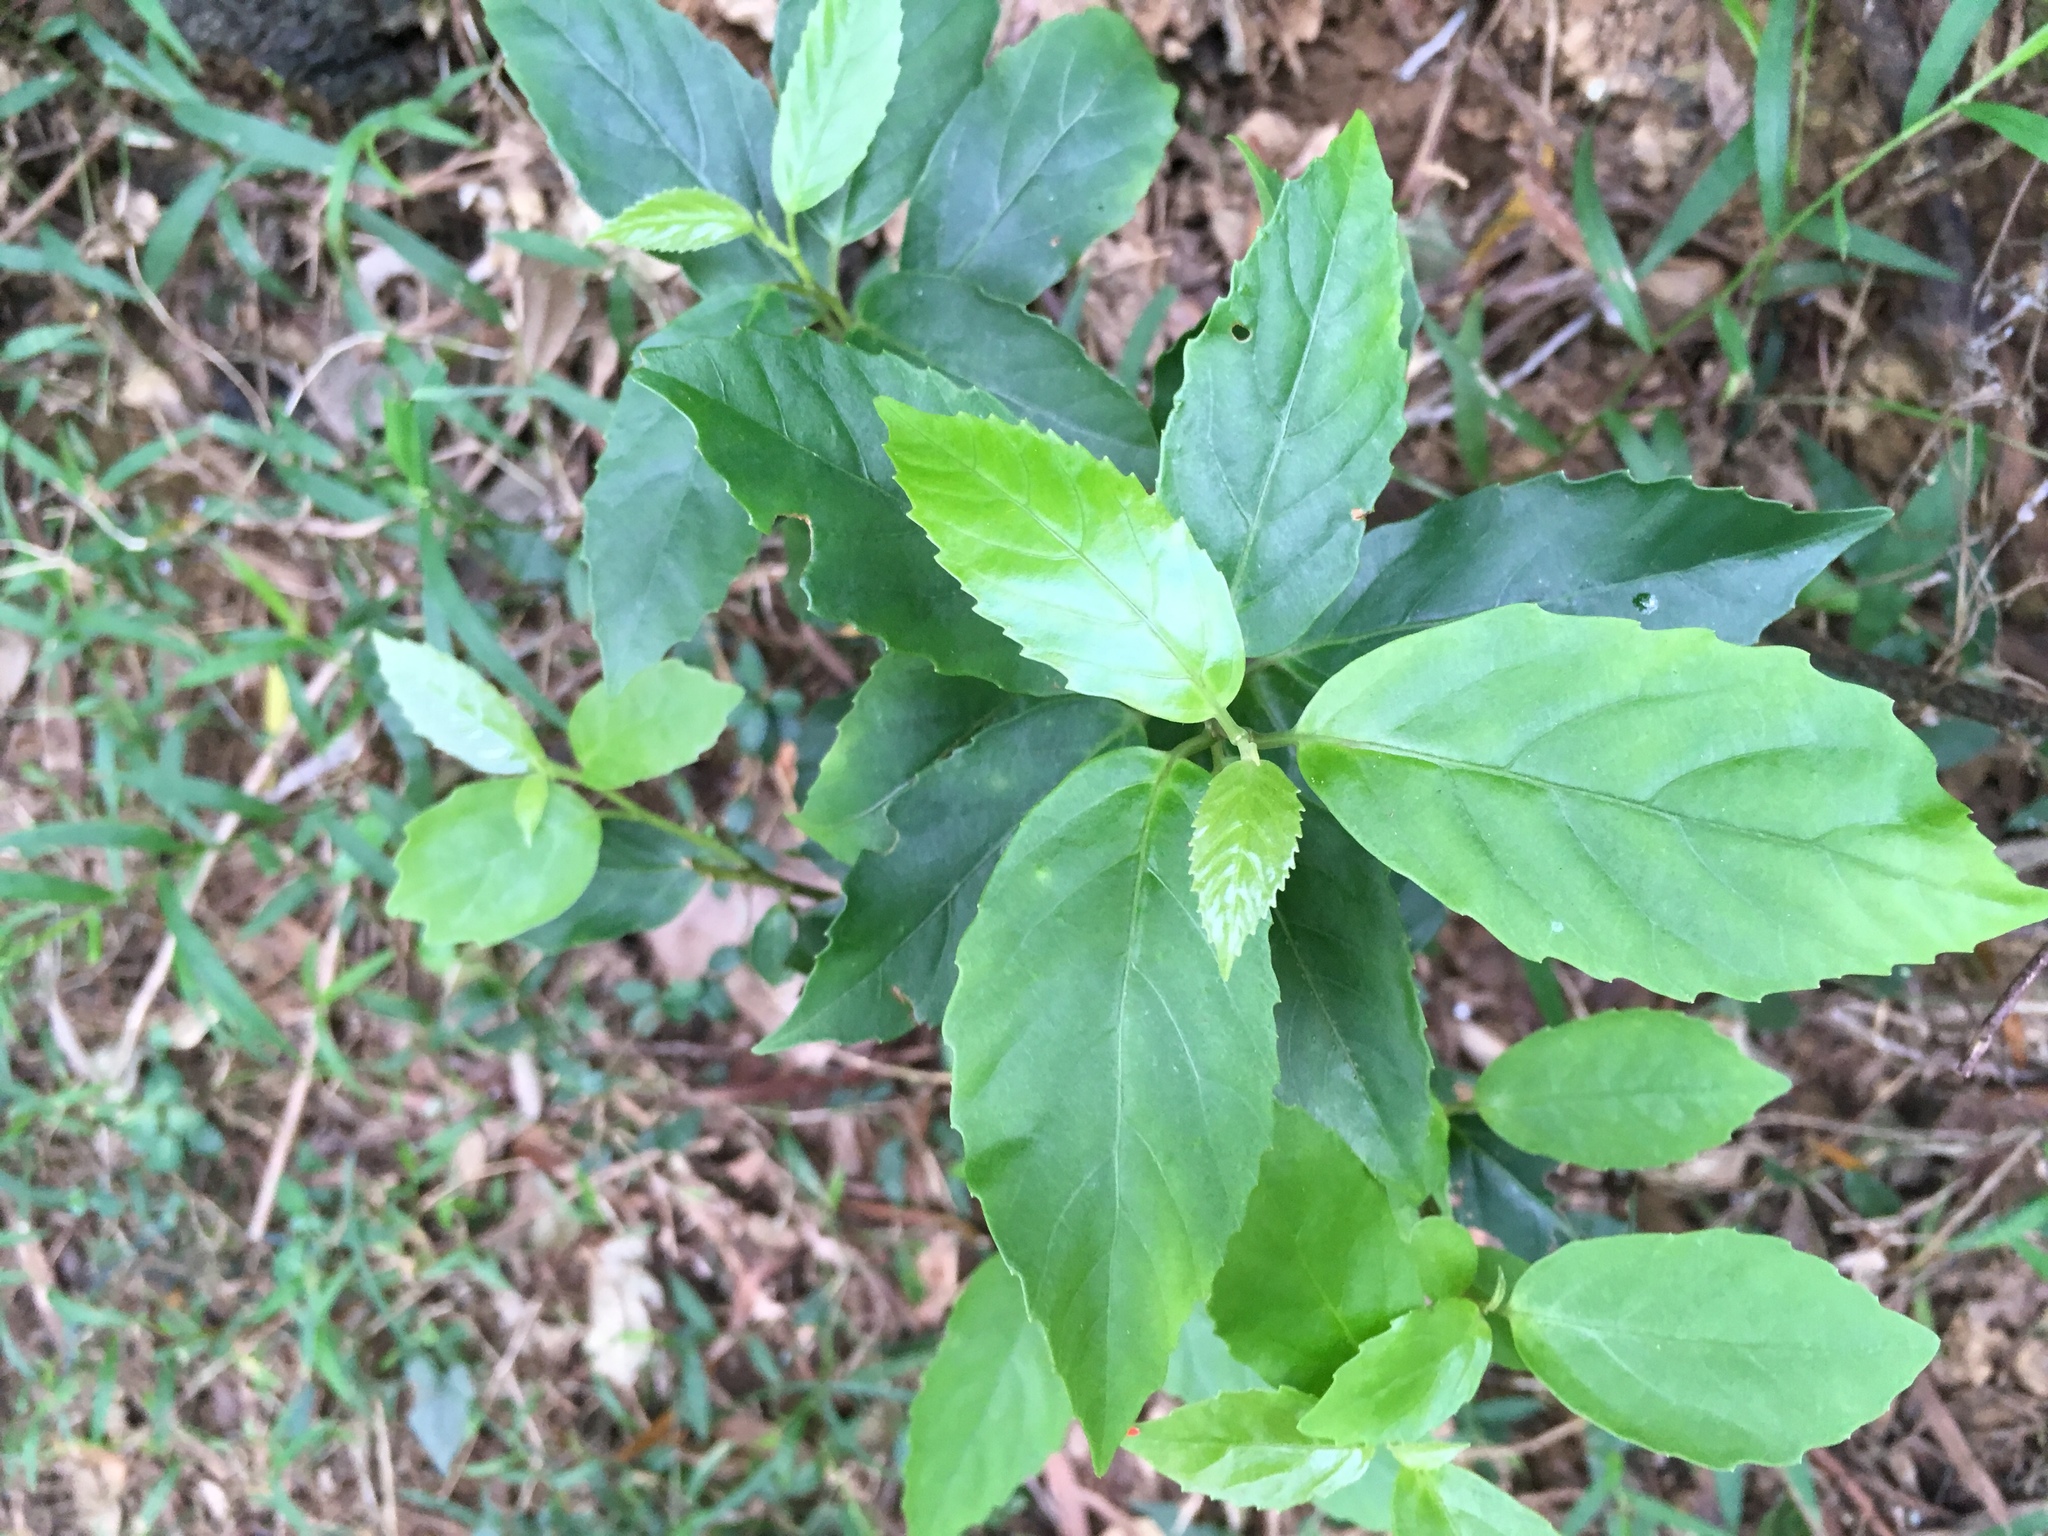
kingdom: Plantae
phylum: Tracheophyta
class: Magnoliopsida
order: Ericales
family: Primulaceae
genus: Maesa
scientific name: Maesa perlaria
